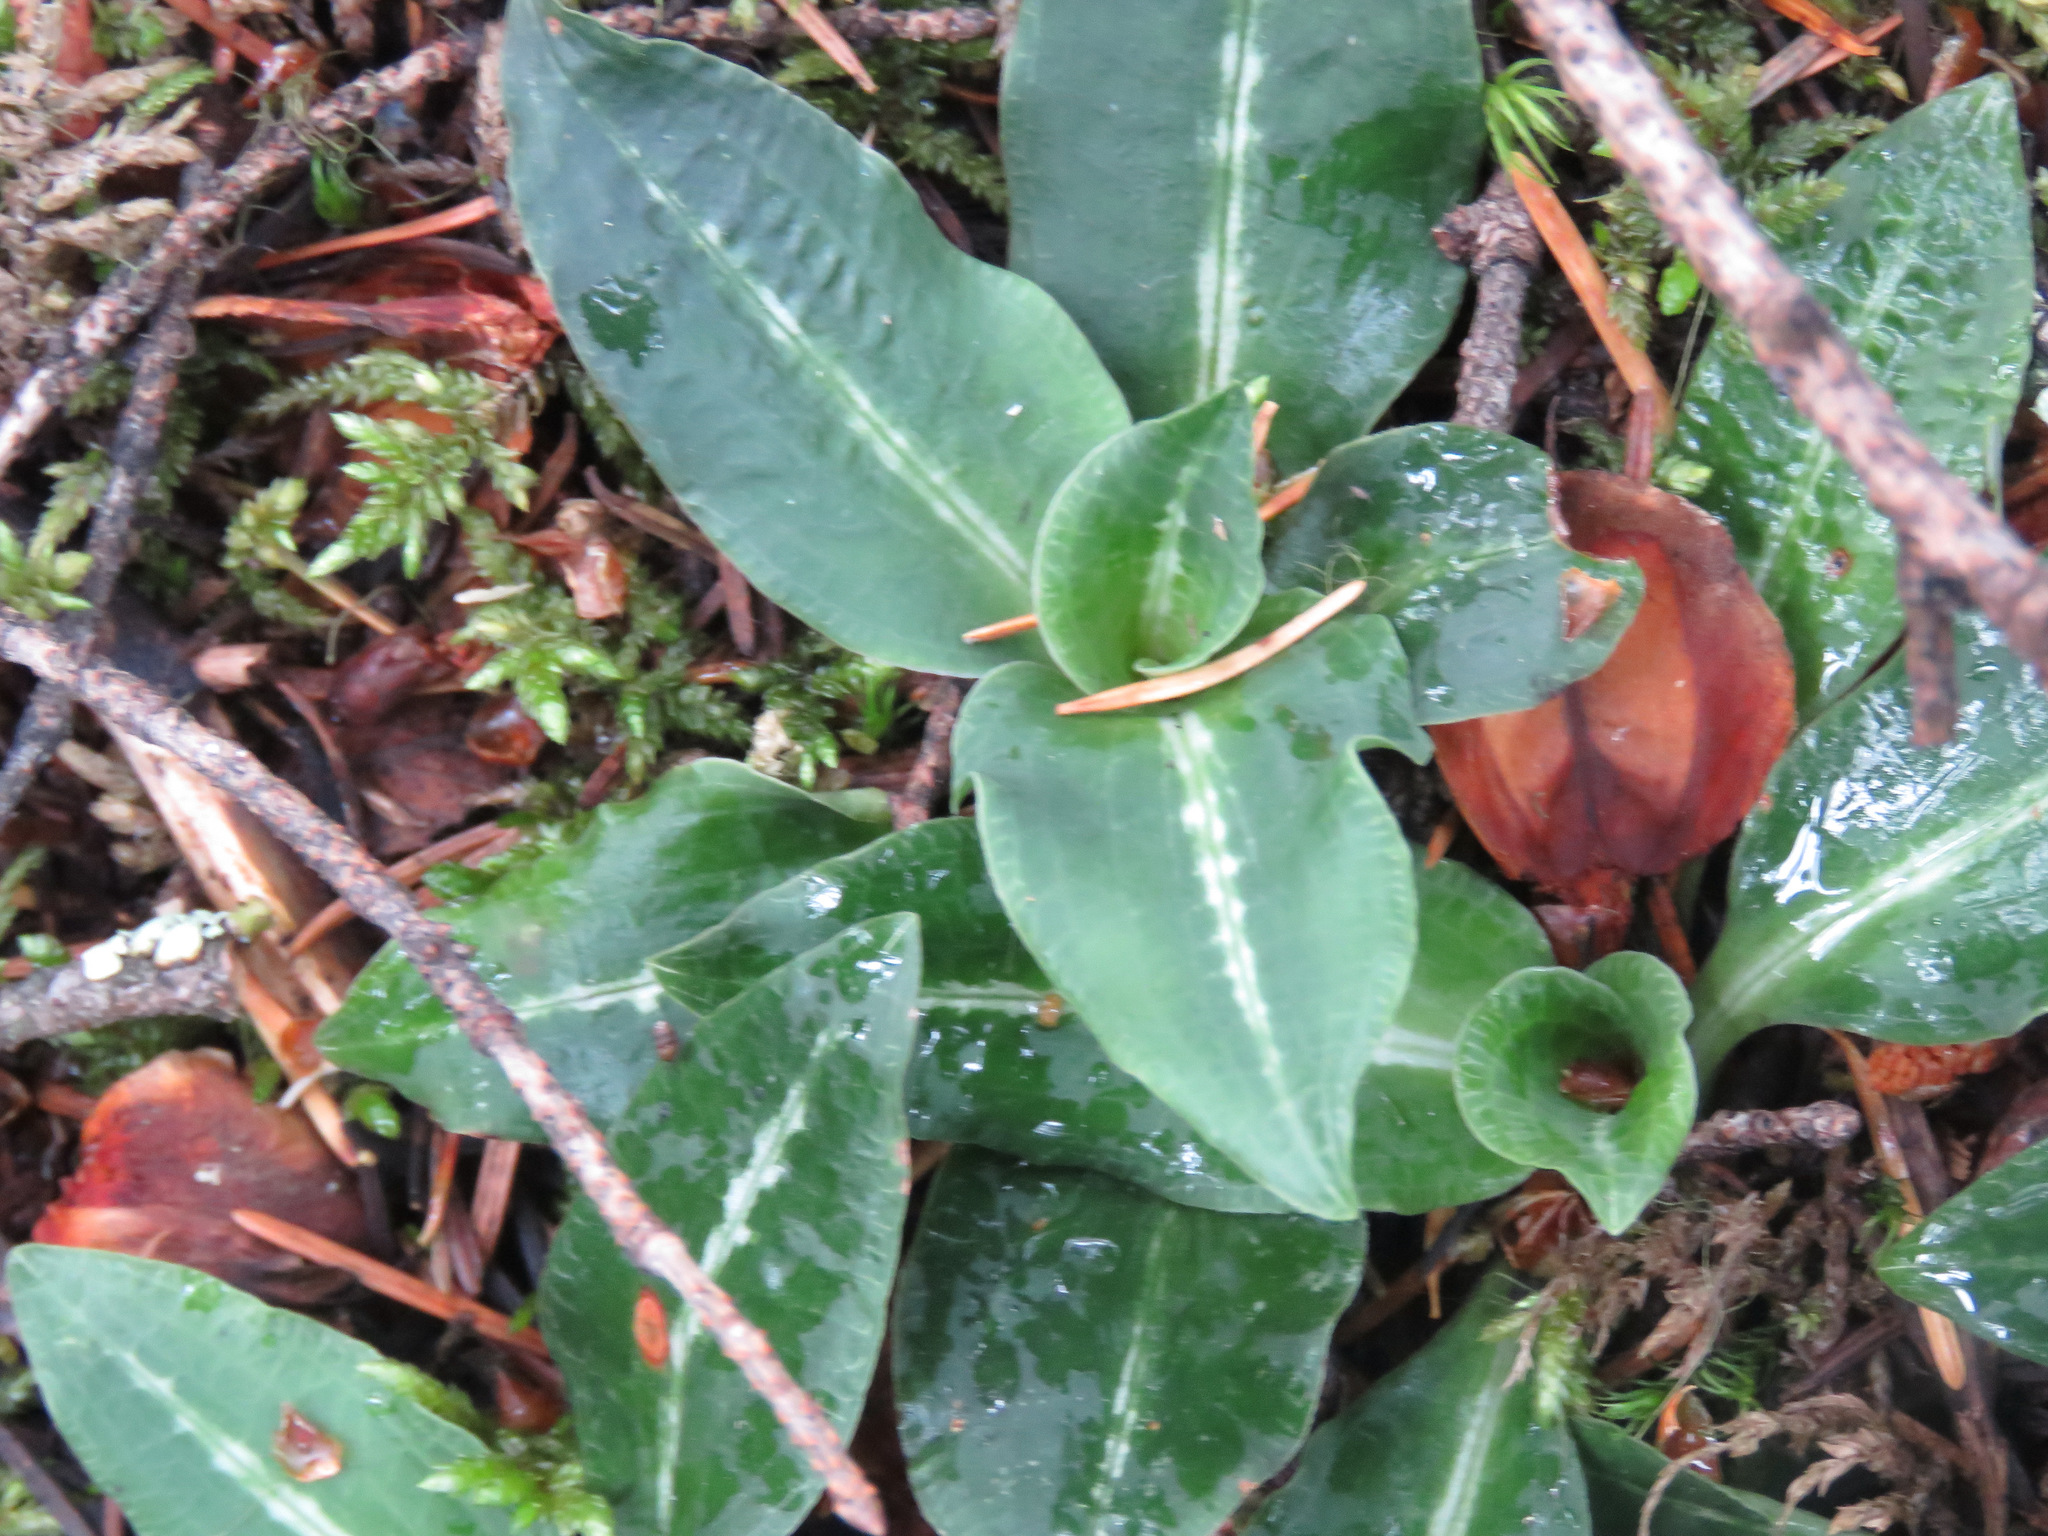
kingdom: Plantae
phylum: Tracheophyta
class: Liliopsida
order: Asparagales
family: Orchidaceae
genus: Goodyera
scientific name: Goodyera oblongifolia
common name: Giant rattlesnake-plantain
